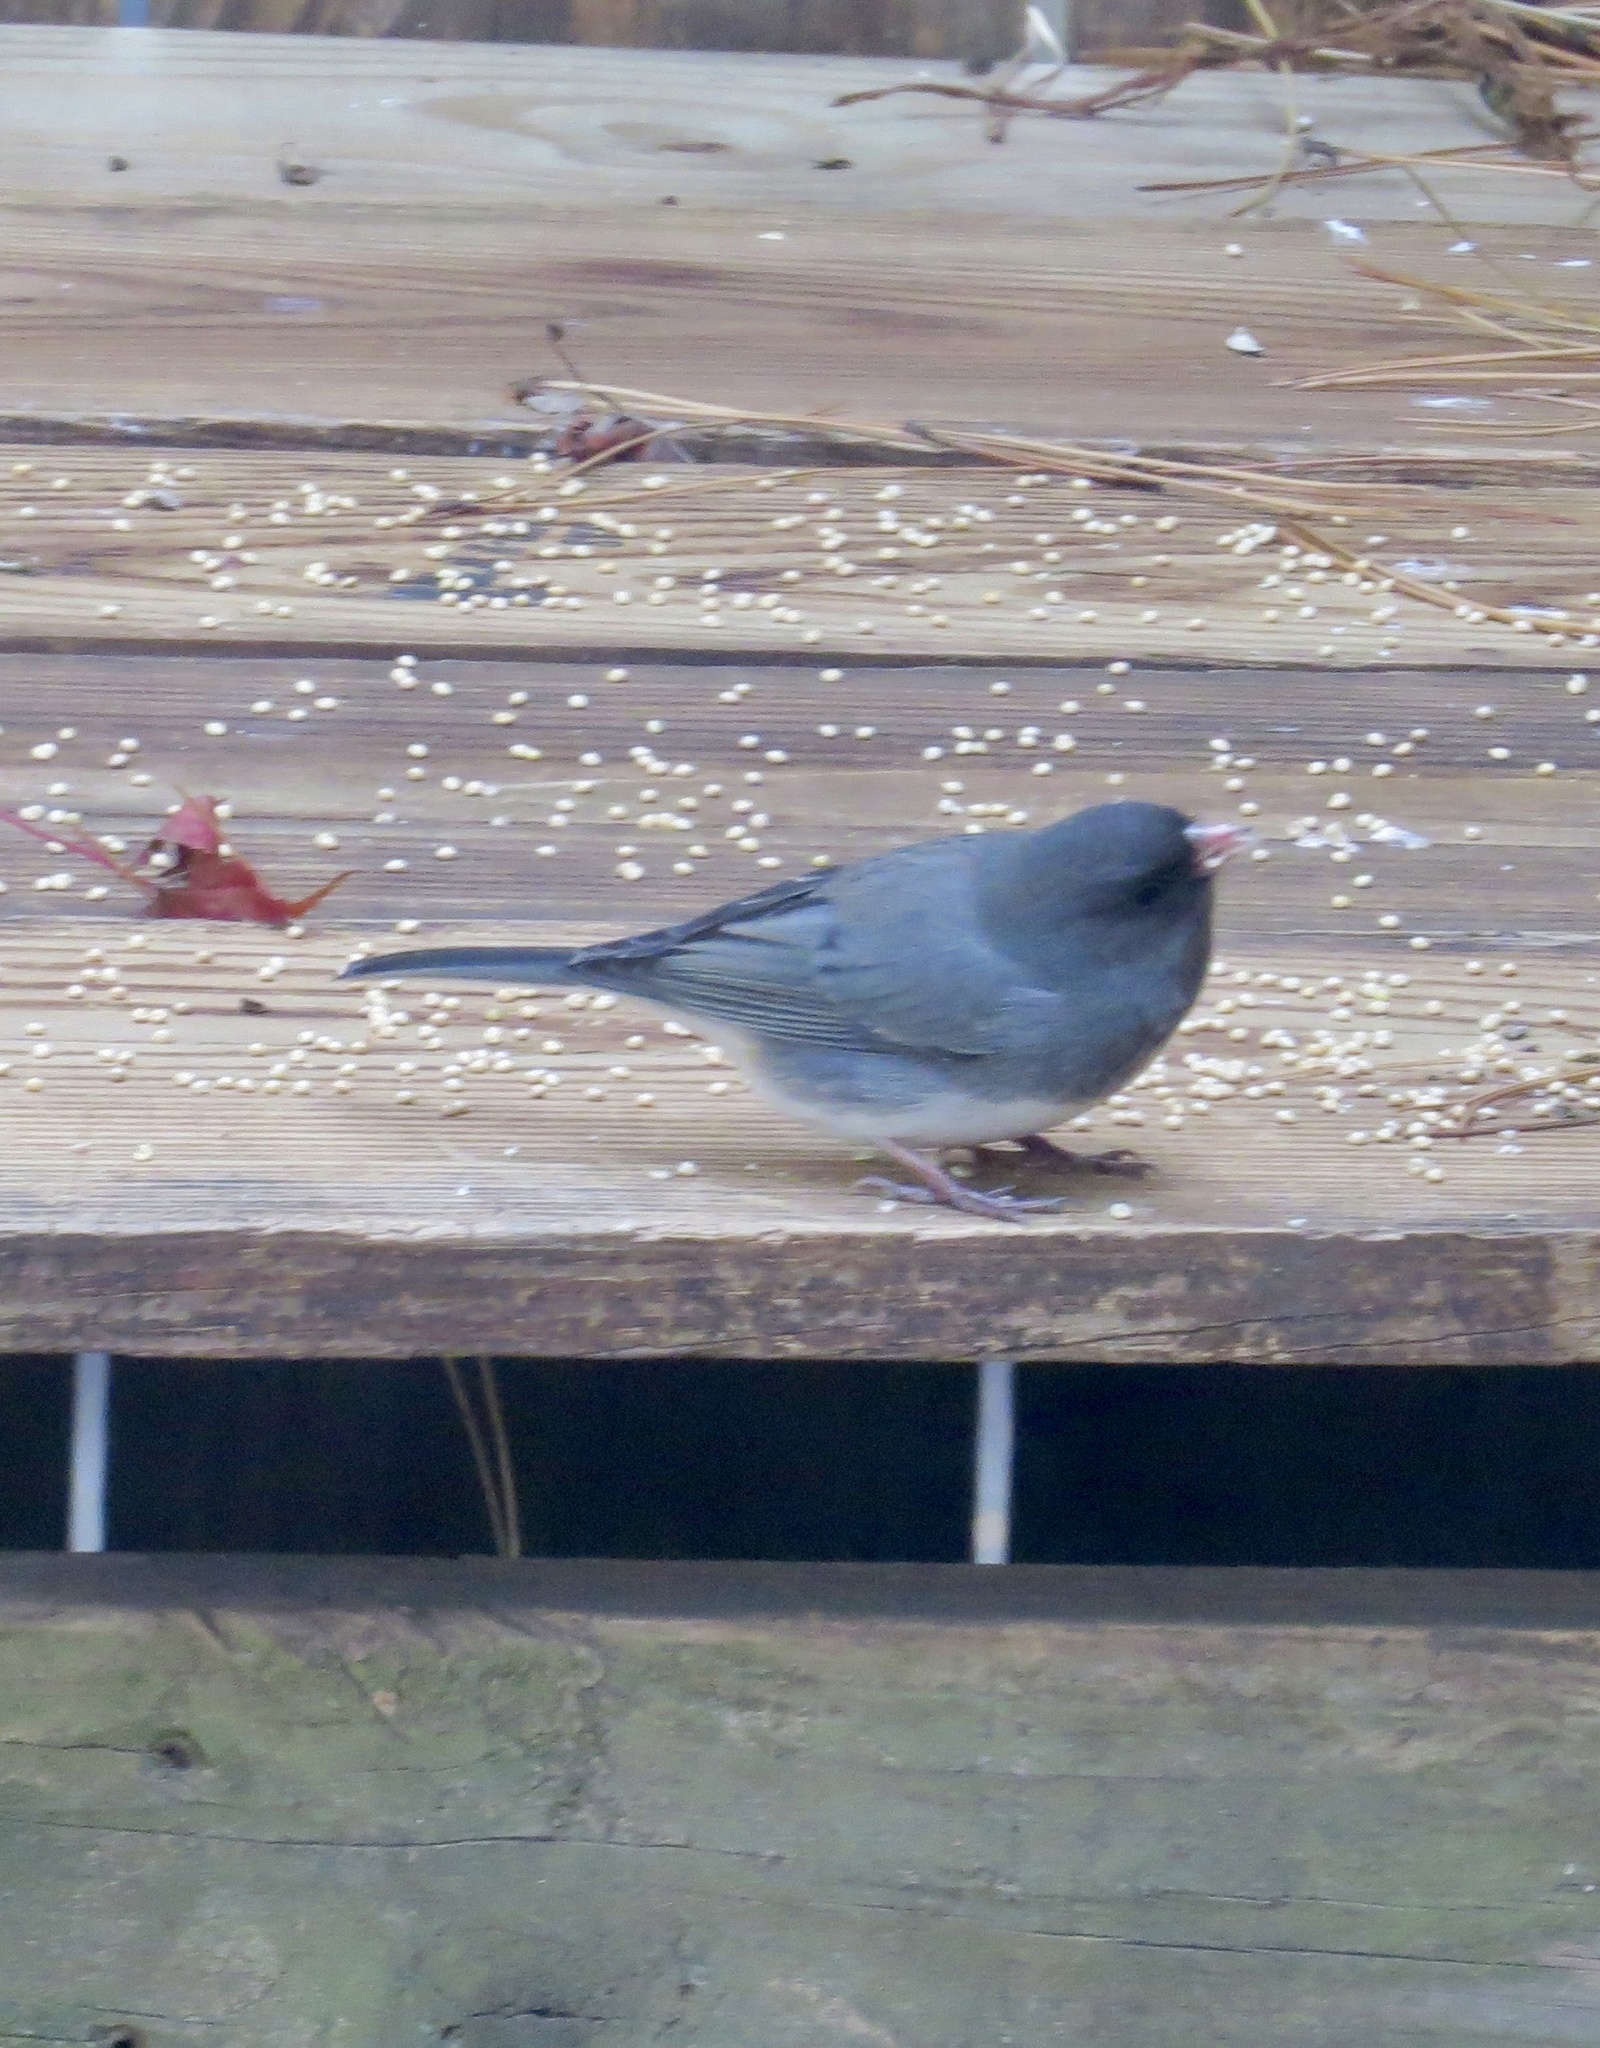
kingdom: Animalia
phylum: Chordata
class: Aves
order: Passeriformes
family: Passerellidae
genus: Junco
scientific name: Junco hyemalis
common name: Dark-eyed junco
